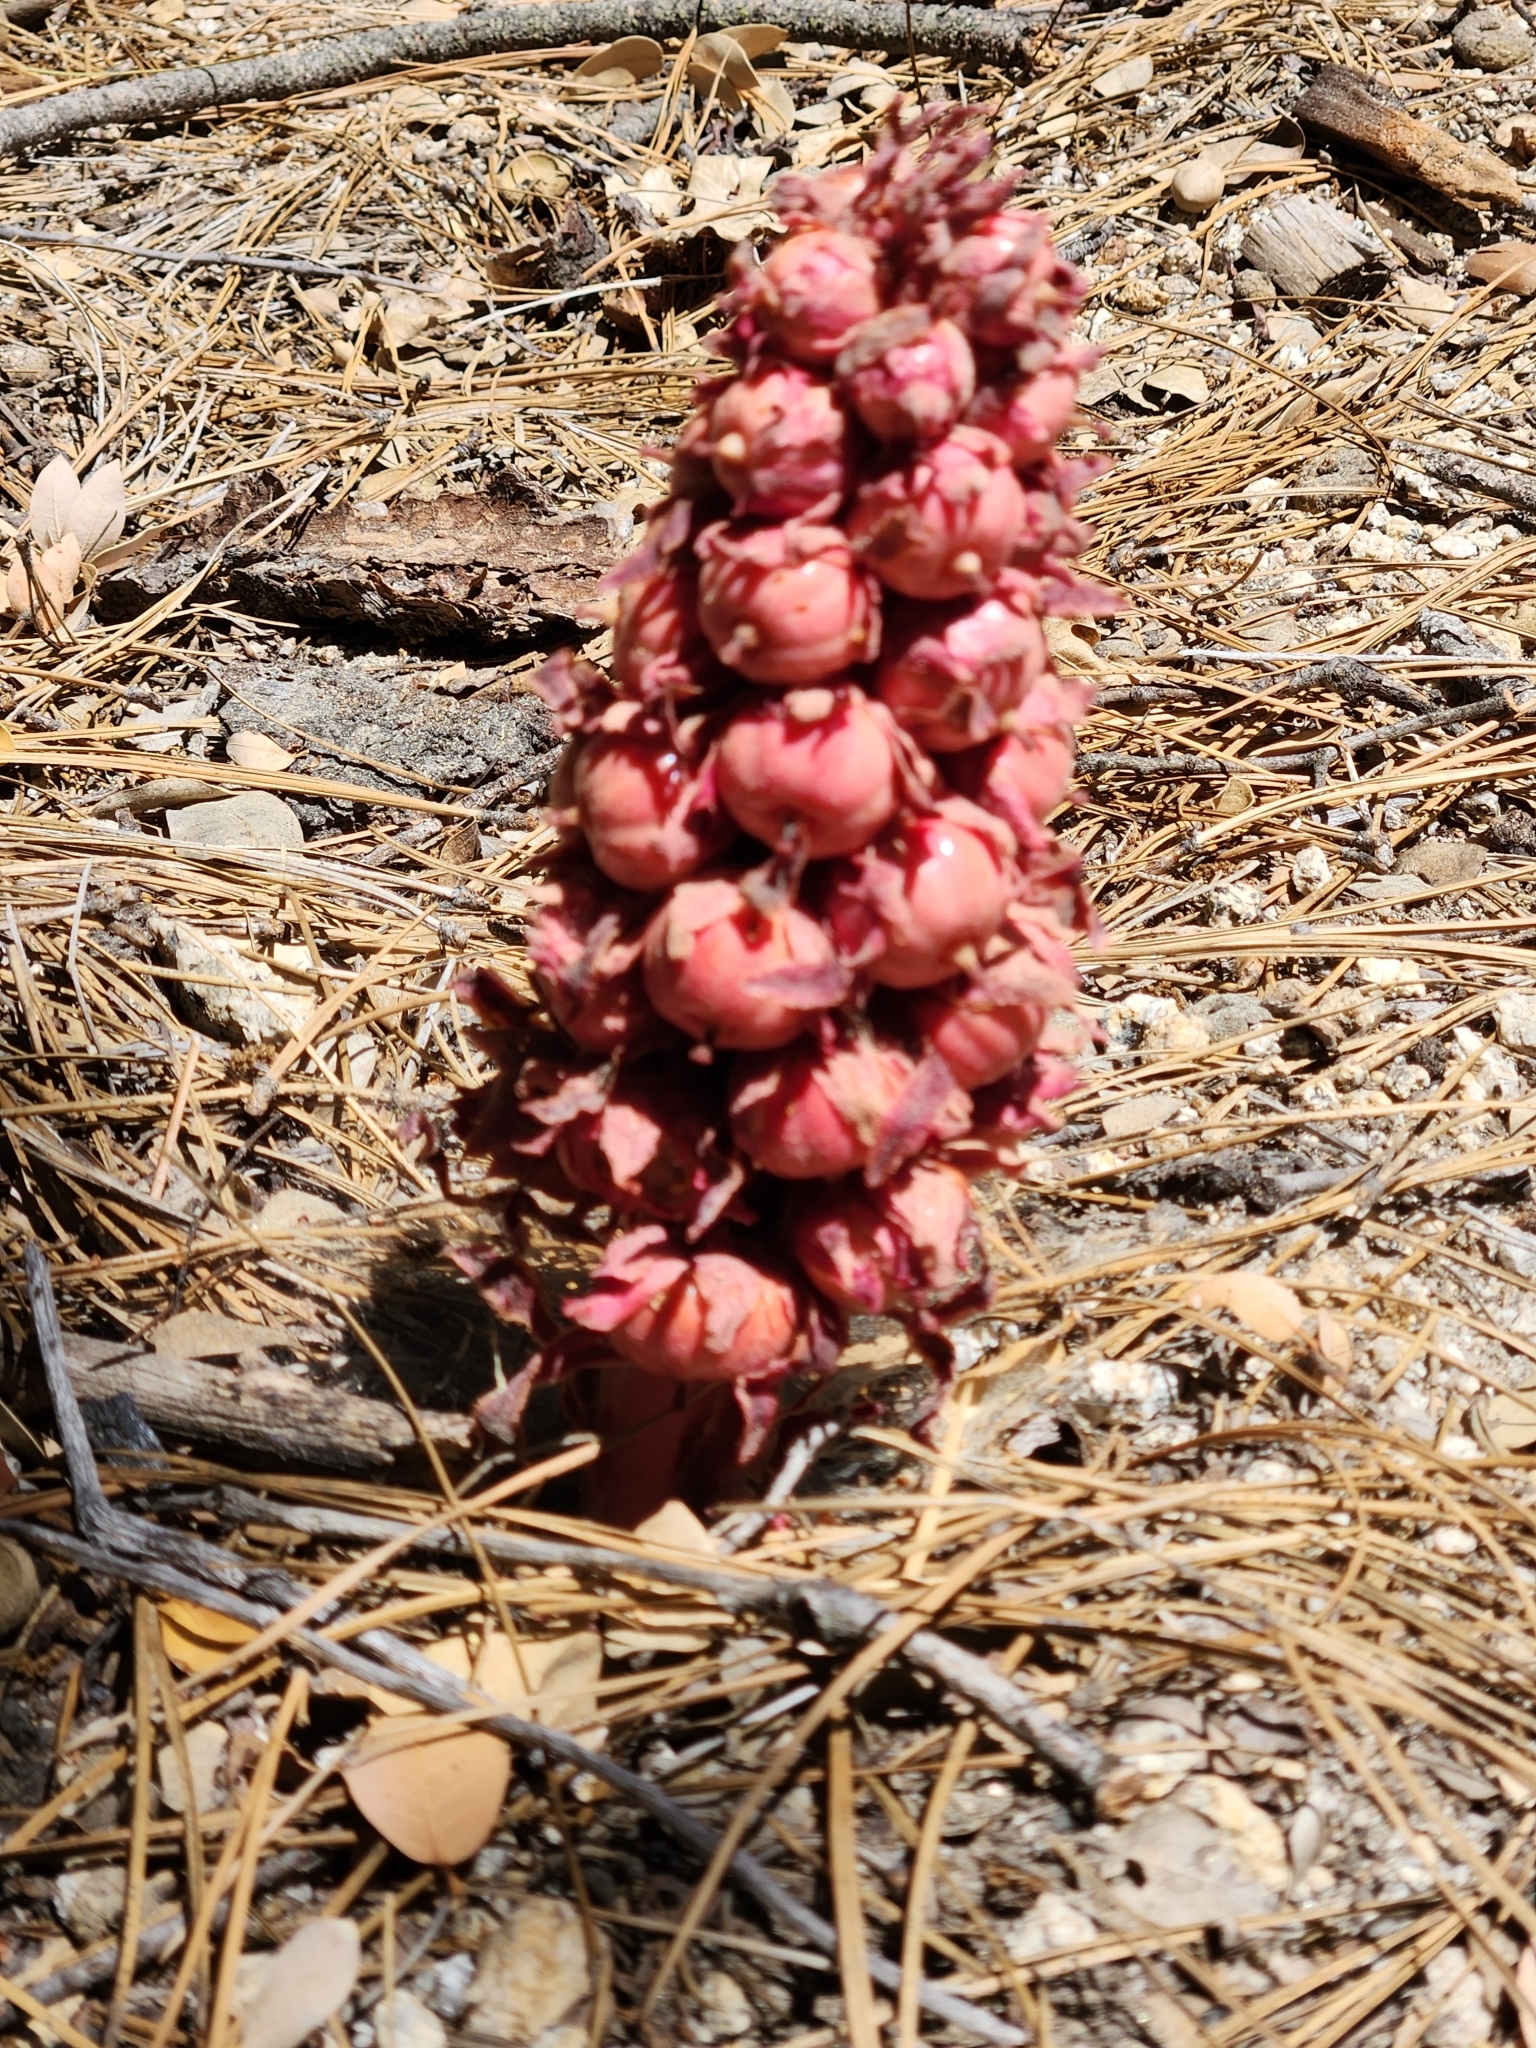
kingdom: Plantae
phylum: Tracheophyta
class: Magnoliopsida
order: Ericales
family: Ericaceae
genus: Sarcodes
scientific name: Sarcodes sanguinea
